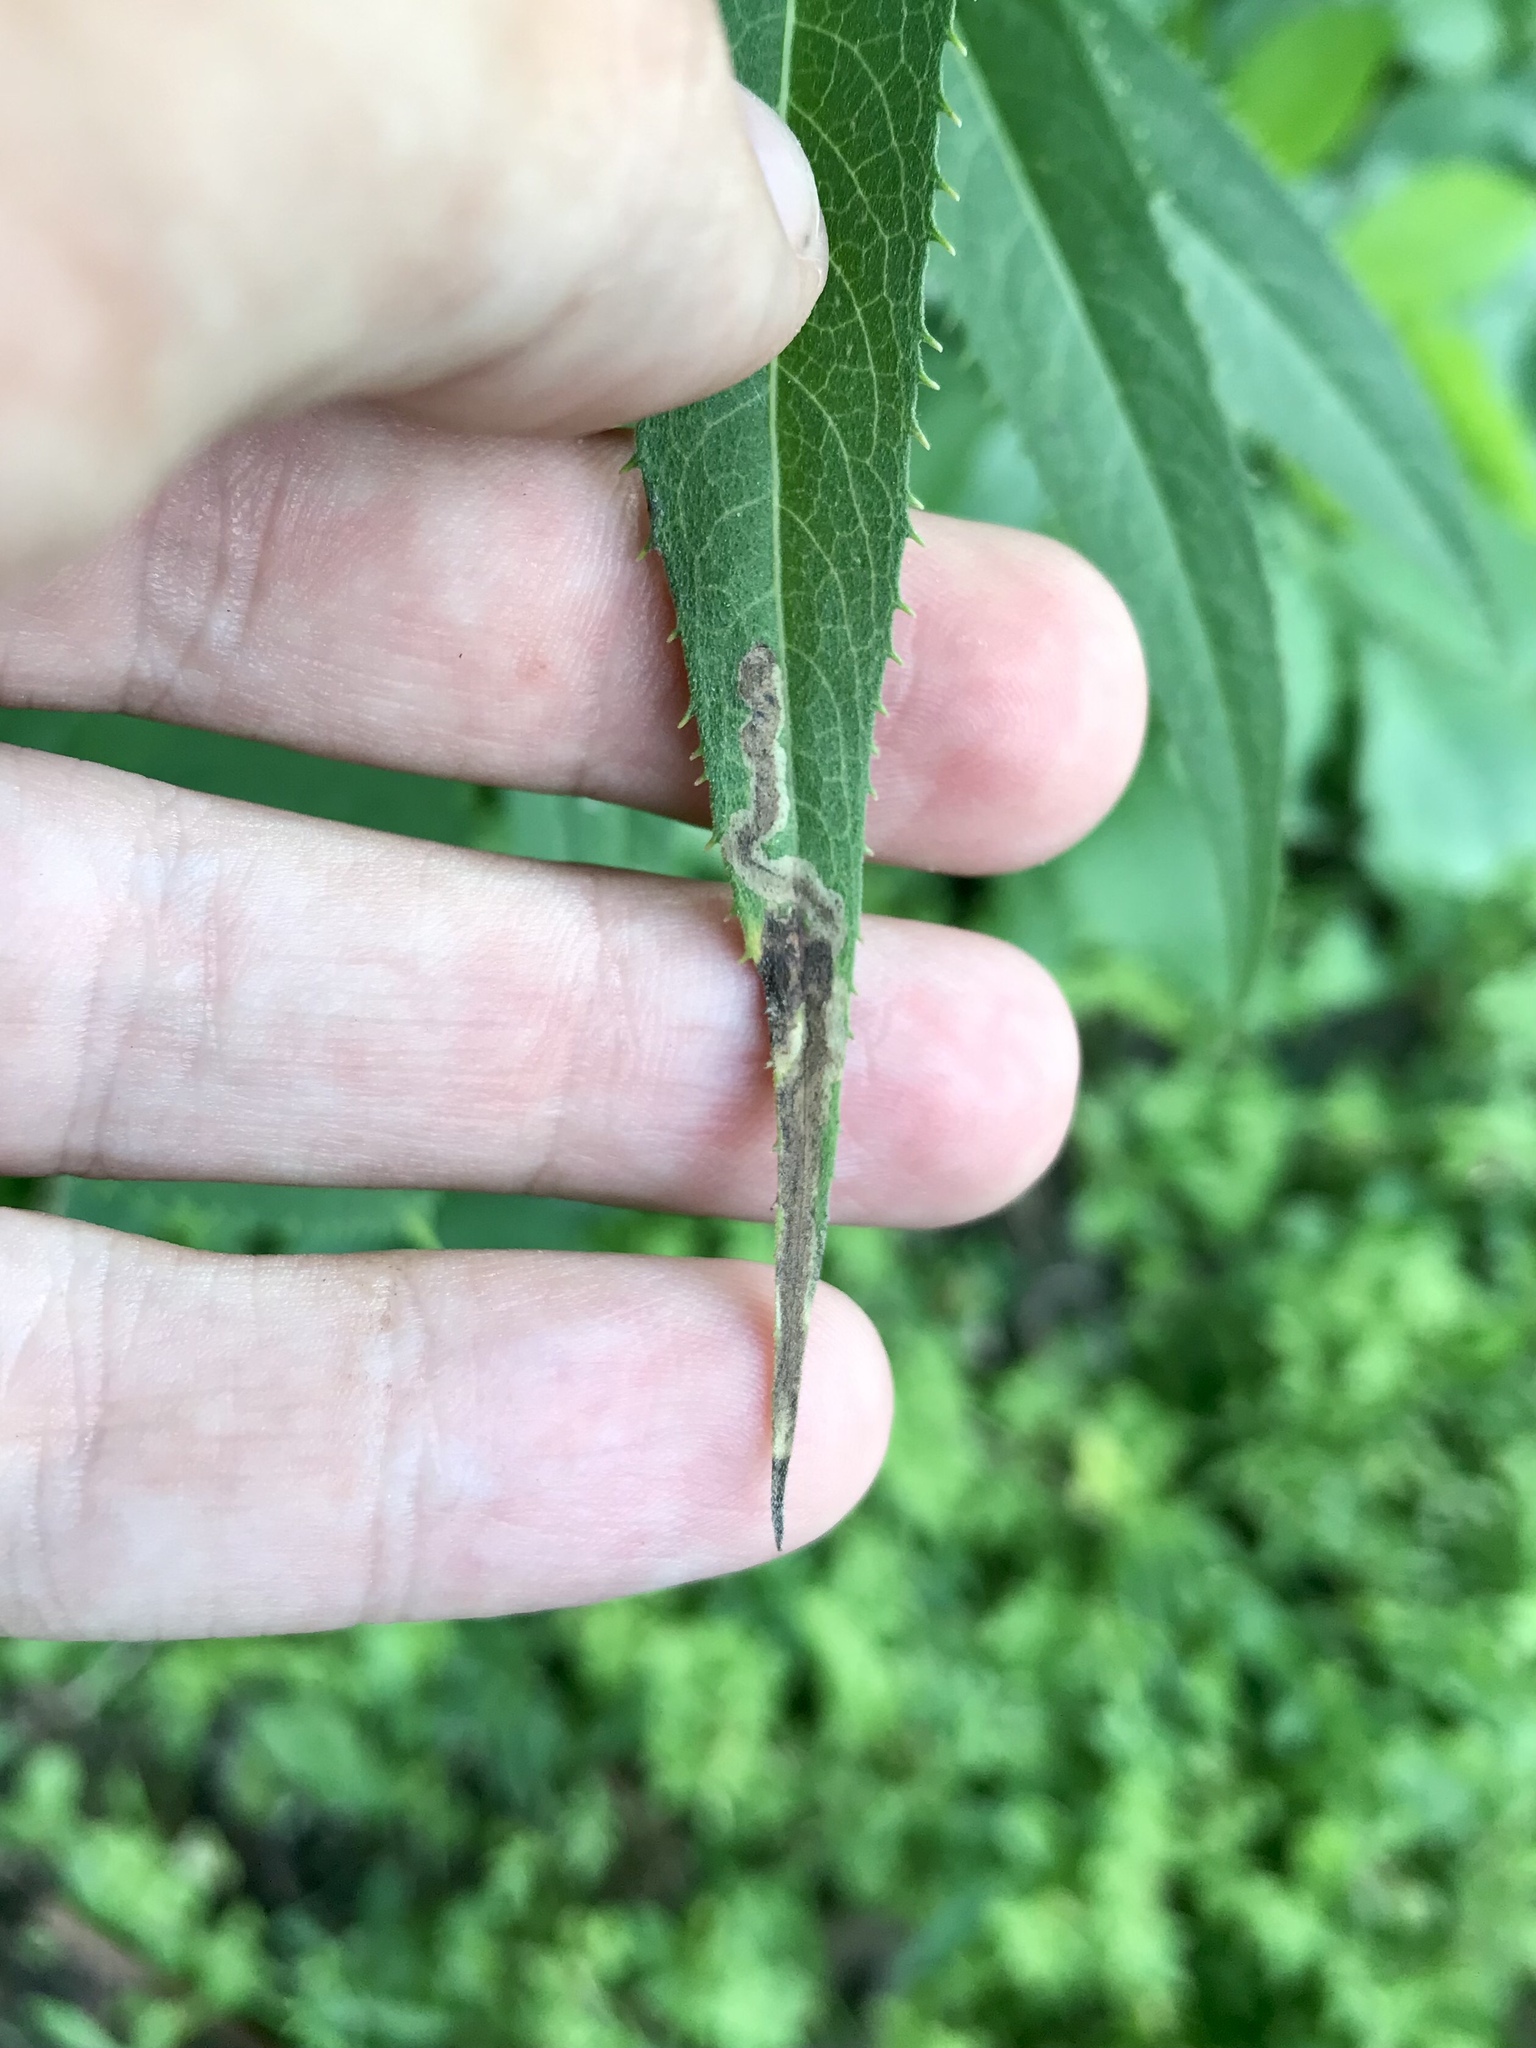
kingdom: Animalia
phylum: Arthropoda
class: Insecta
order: Diptera
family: Agromyzidae
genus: Liriomyza
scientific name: Liriomyza eupatoriella
